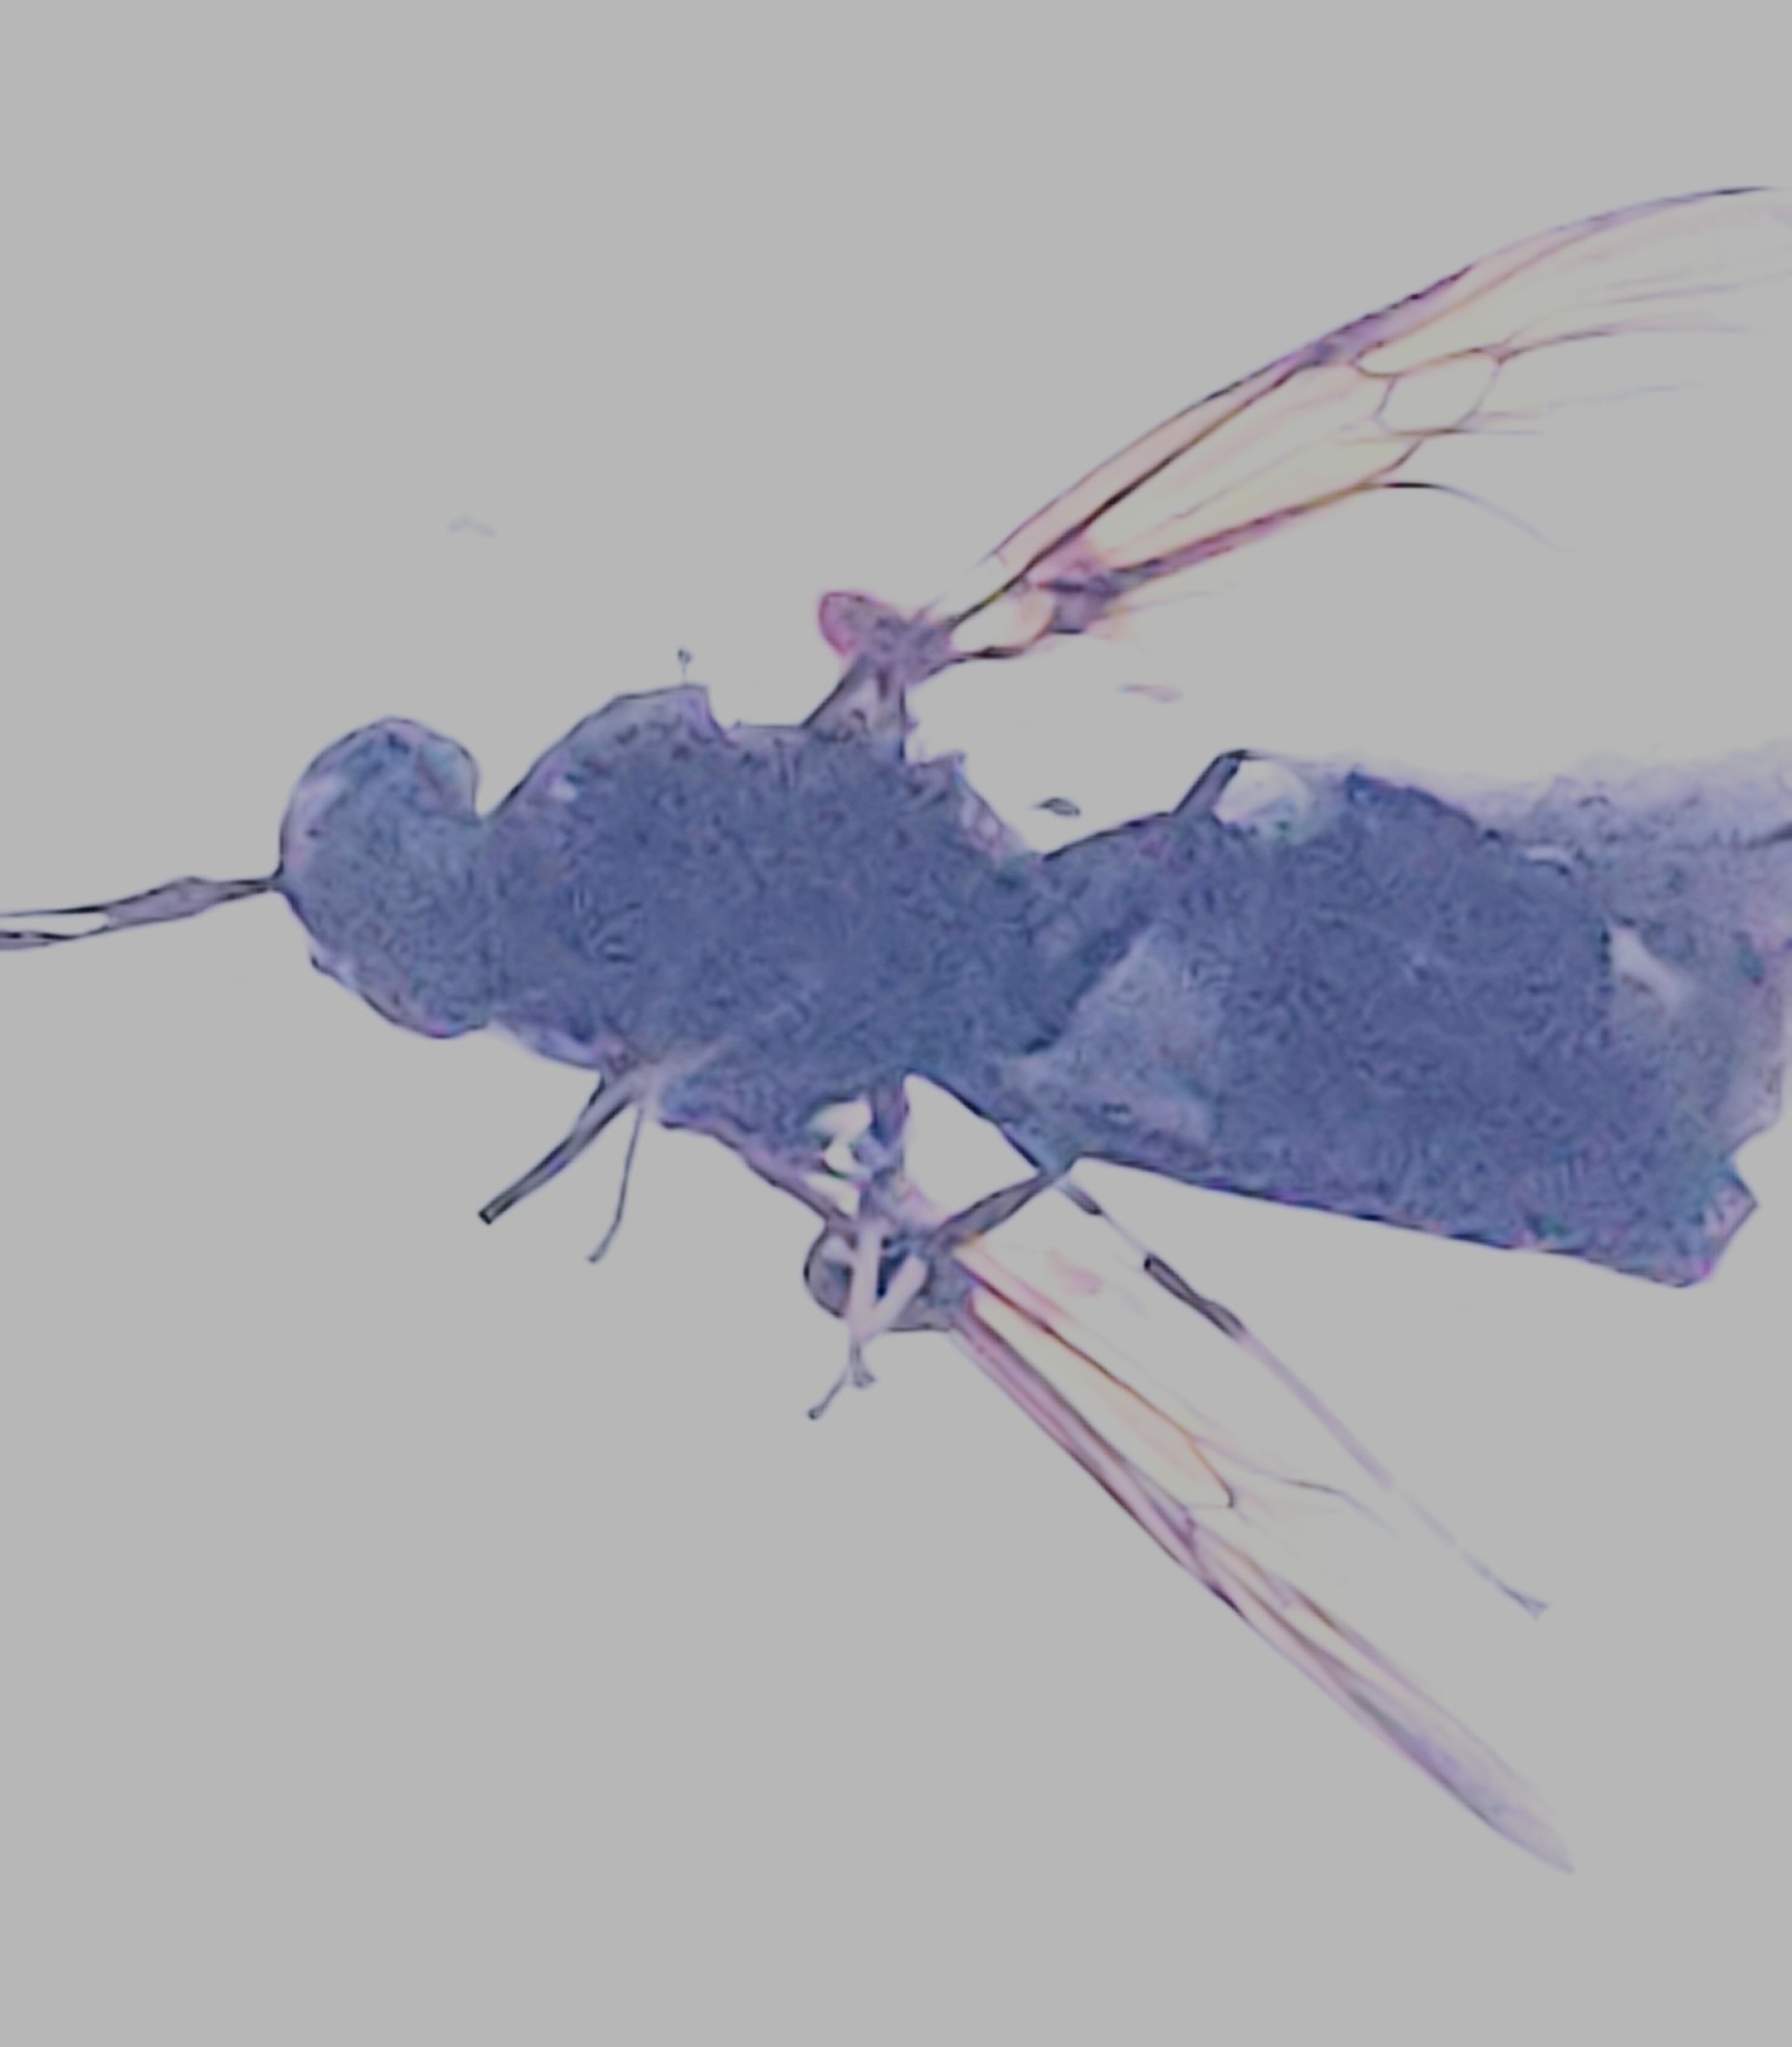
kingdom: Animalia
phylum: Arthropoda
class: Insecta
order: Diptera
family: Stratiomyidae
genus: Hermetia
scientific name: Hermetia sexmaculata
